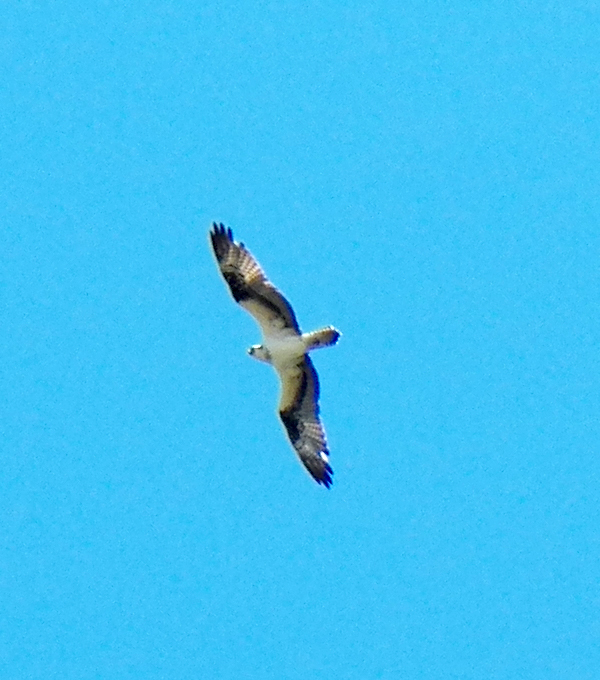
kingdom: Animalia
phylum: Chordata
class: Aves
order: Accipitriformes
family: Pandionidae
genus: Pandion
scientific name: Pandion haliaetus
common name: Osprey
